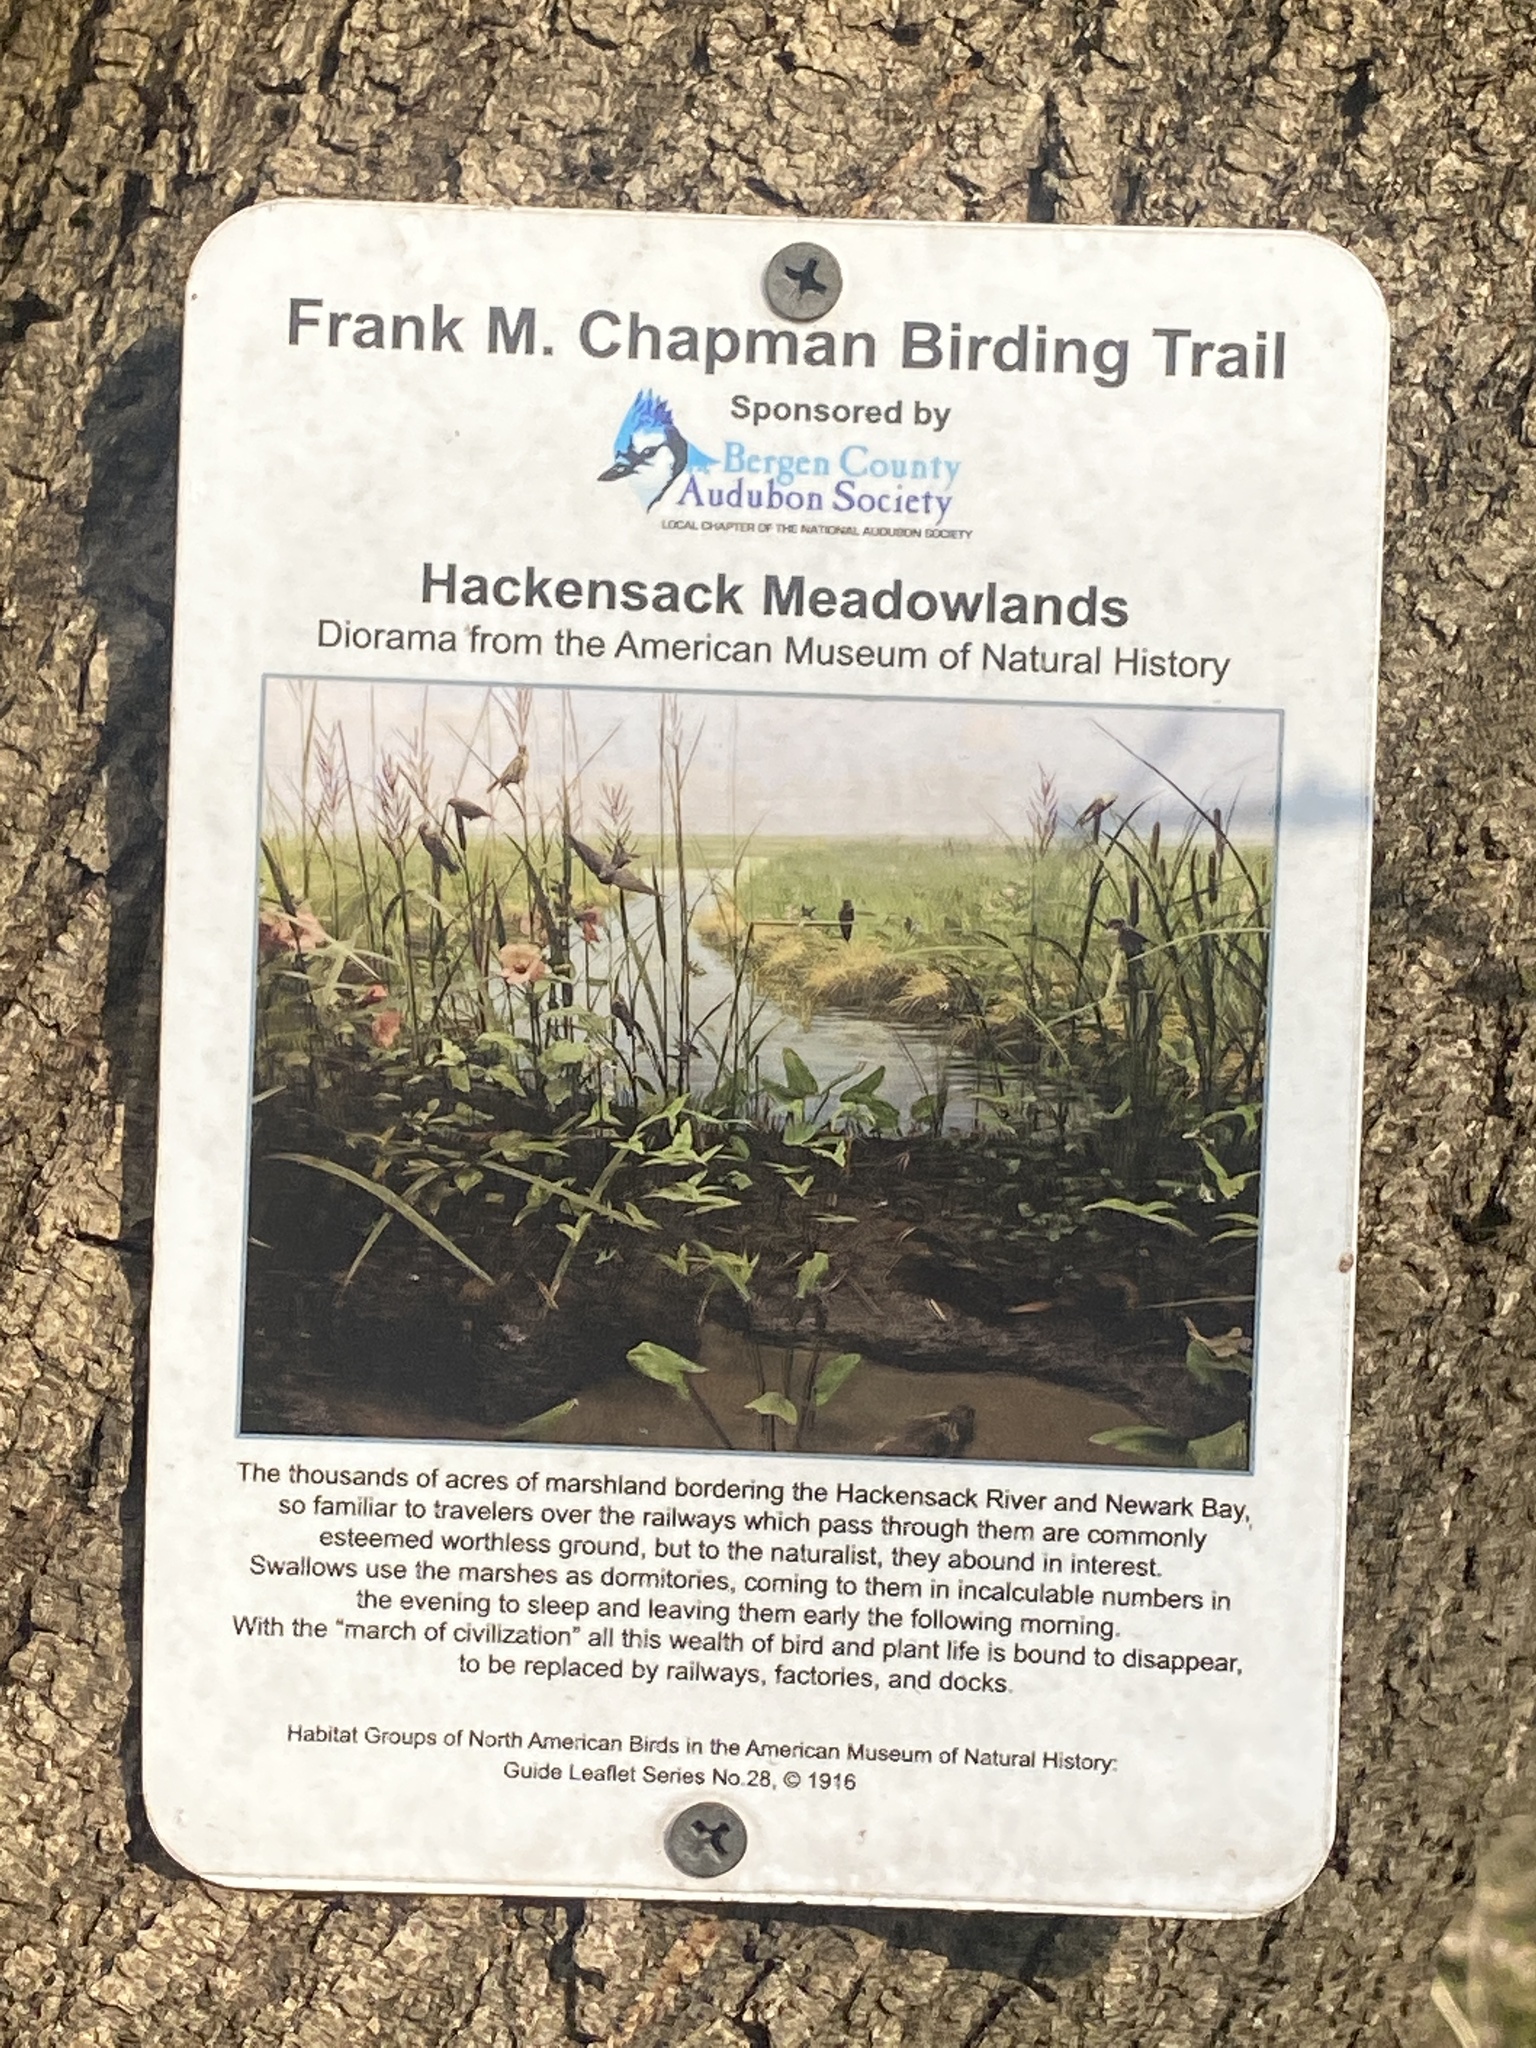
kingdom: Plantae
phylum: Tracheophyta
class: Magnoliopsida
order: Rosales
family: Rosaceae
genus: Rosa
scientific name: Rosa multiflora
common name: Multiflora rose
